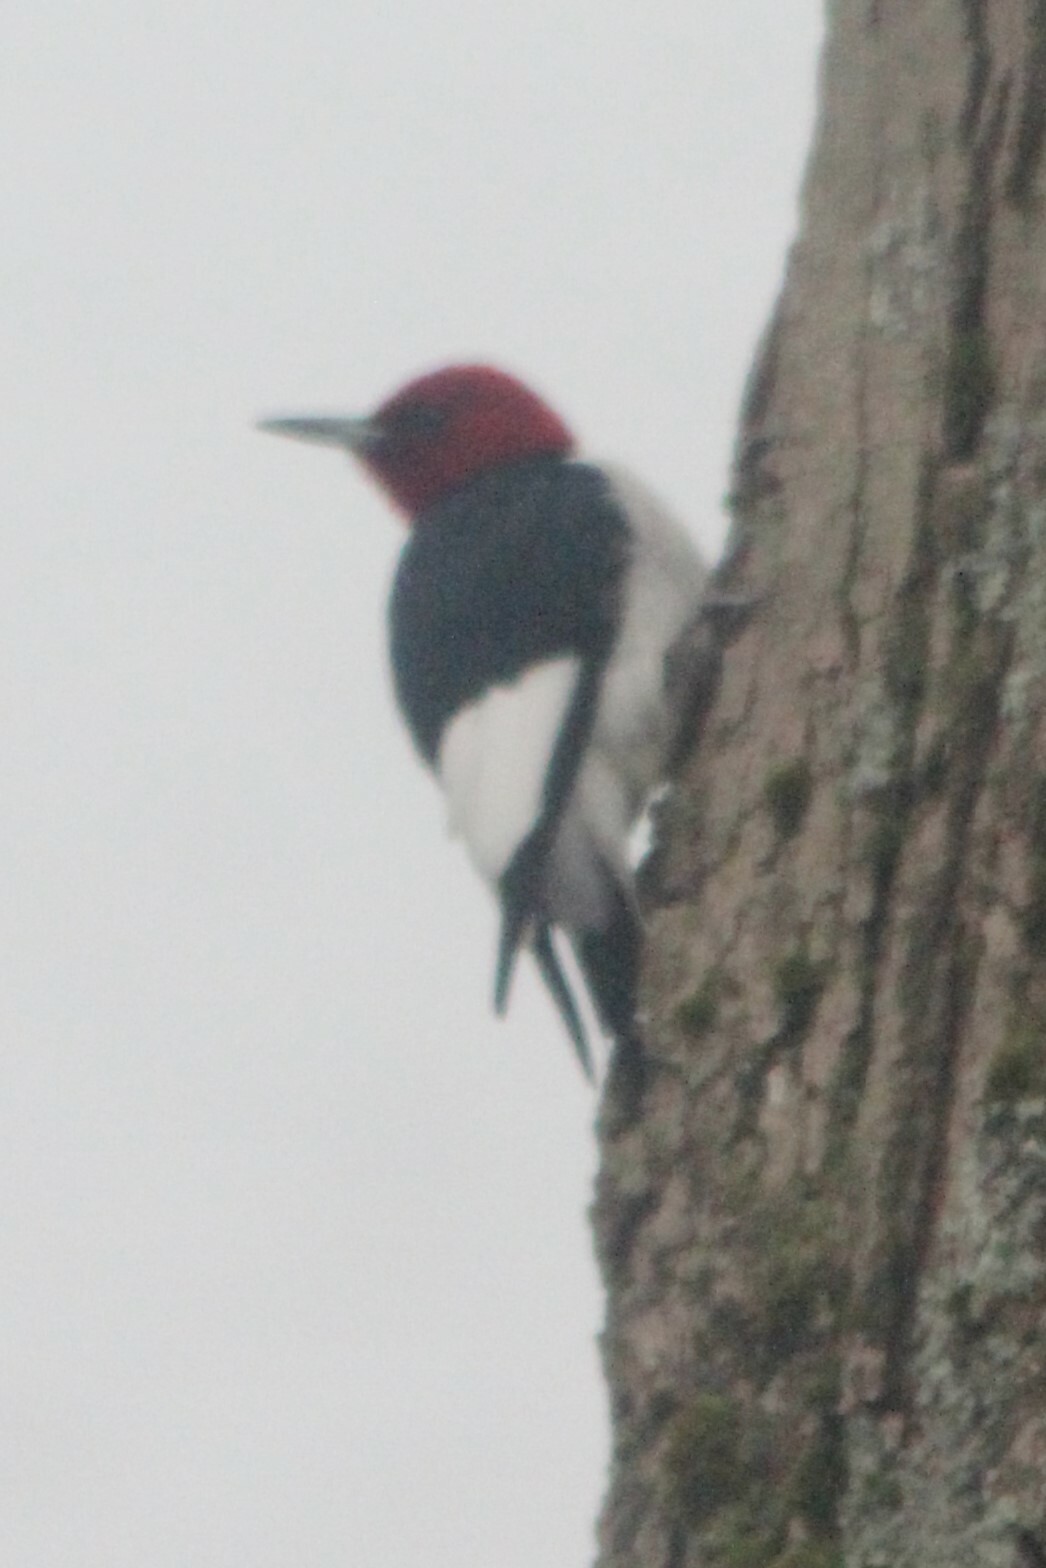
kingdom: Animalia
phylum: Chordata
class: Aves
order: Piciformes
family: Picidae
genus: Melanerpes
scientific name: Melanerpes erythrocephalus
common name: Red-headed woodpecker
